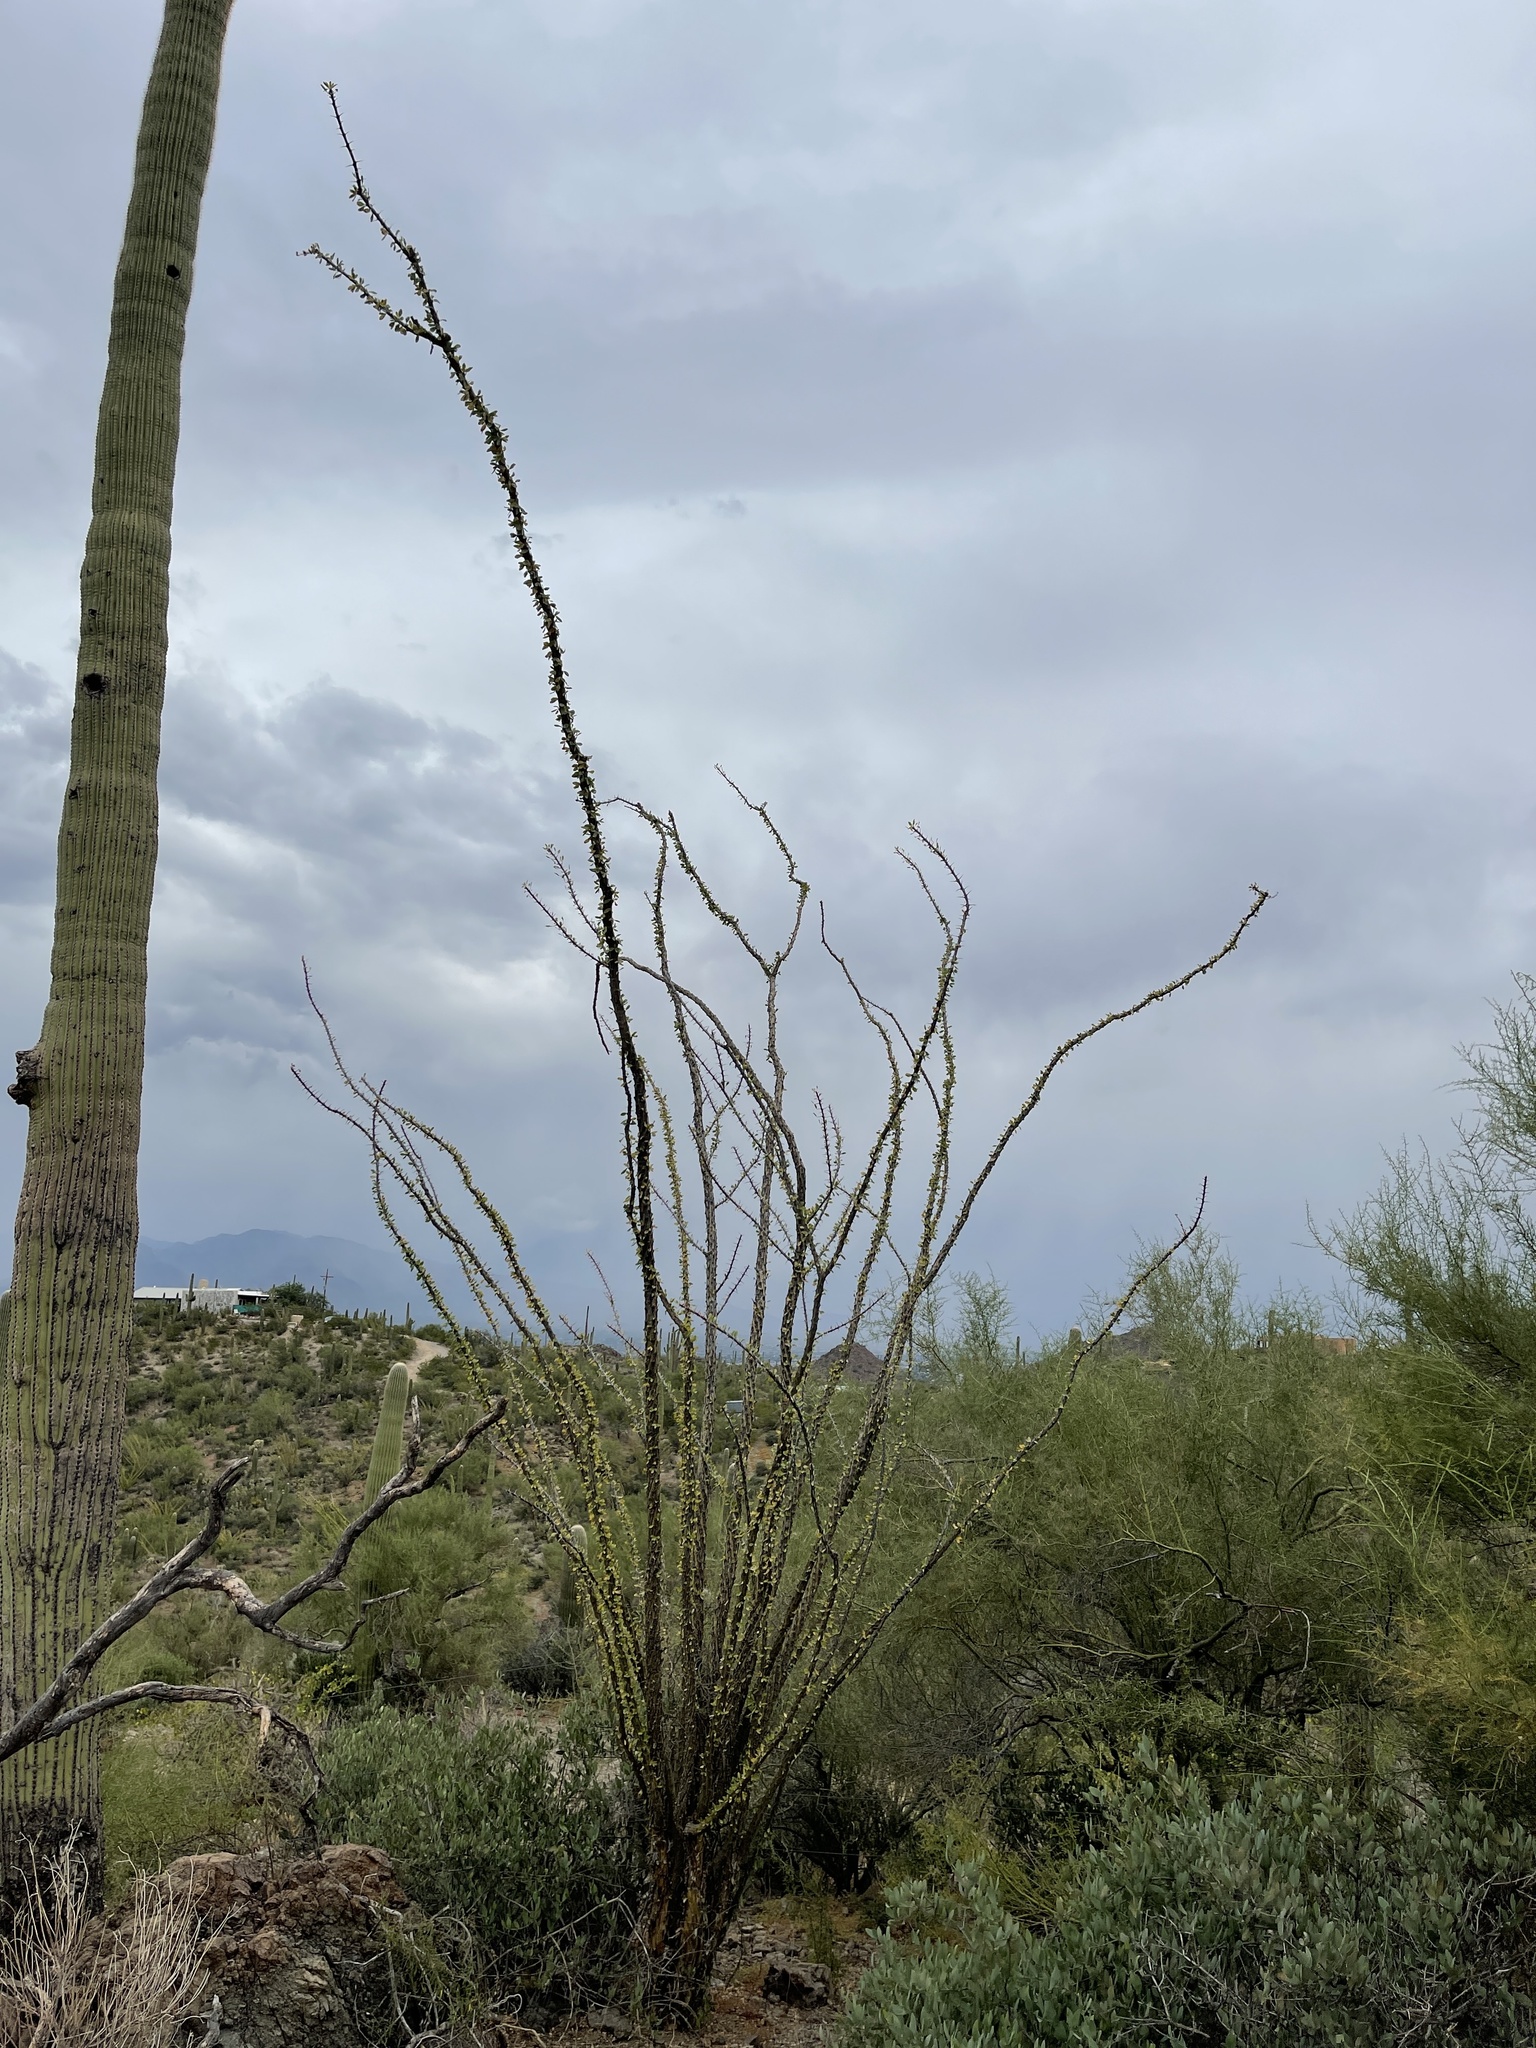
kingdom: Plantae
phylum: Tracheophyta
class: Magnoliopsida
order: Ericales
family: Fouquieriaceae
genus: Fouquieria
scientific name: Fouquieria splendens
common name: Vine-cactus
